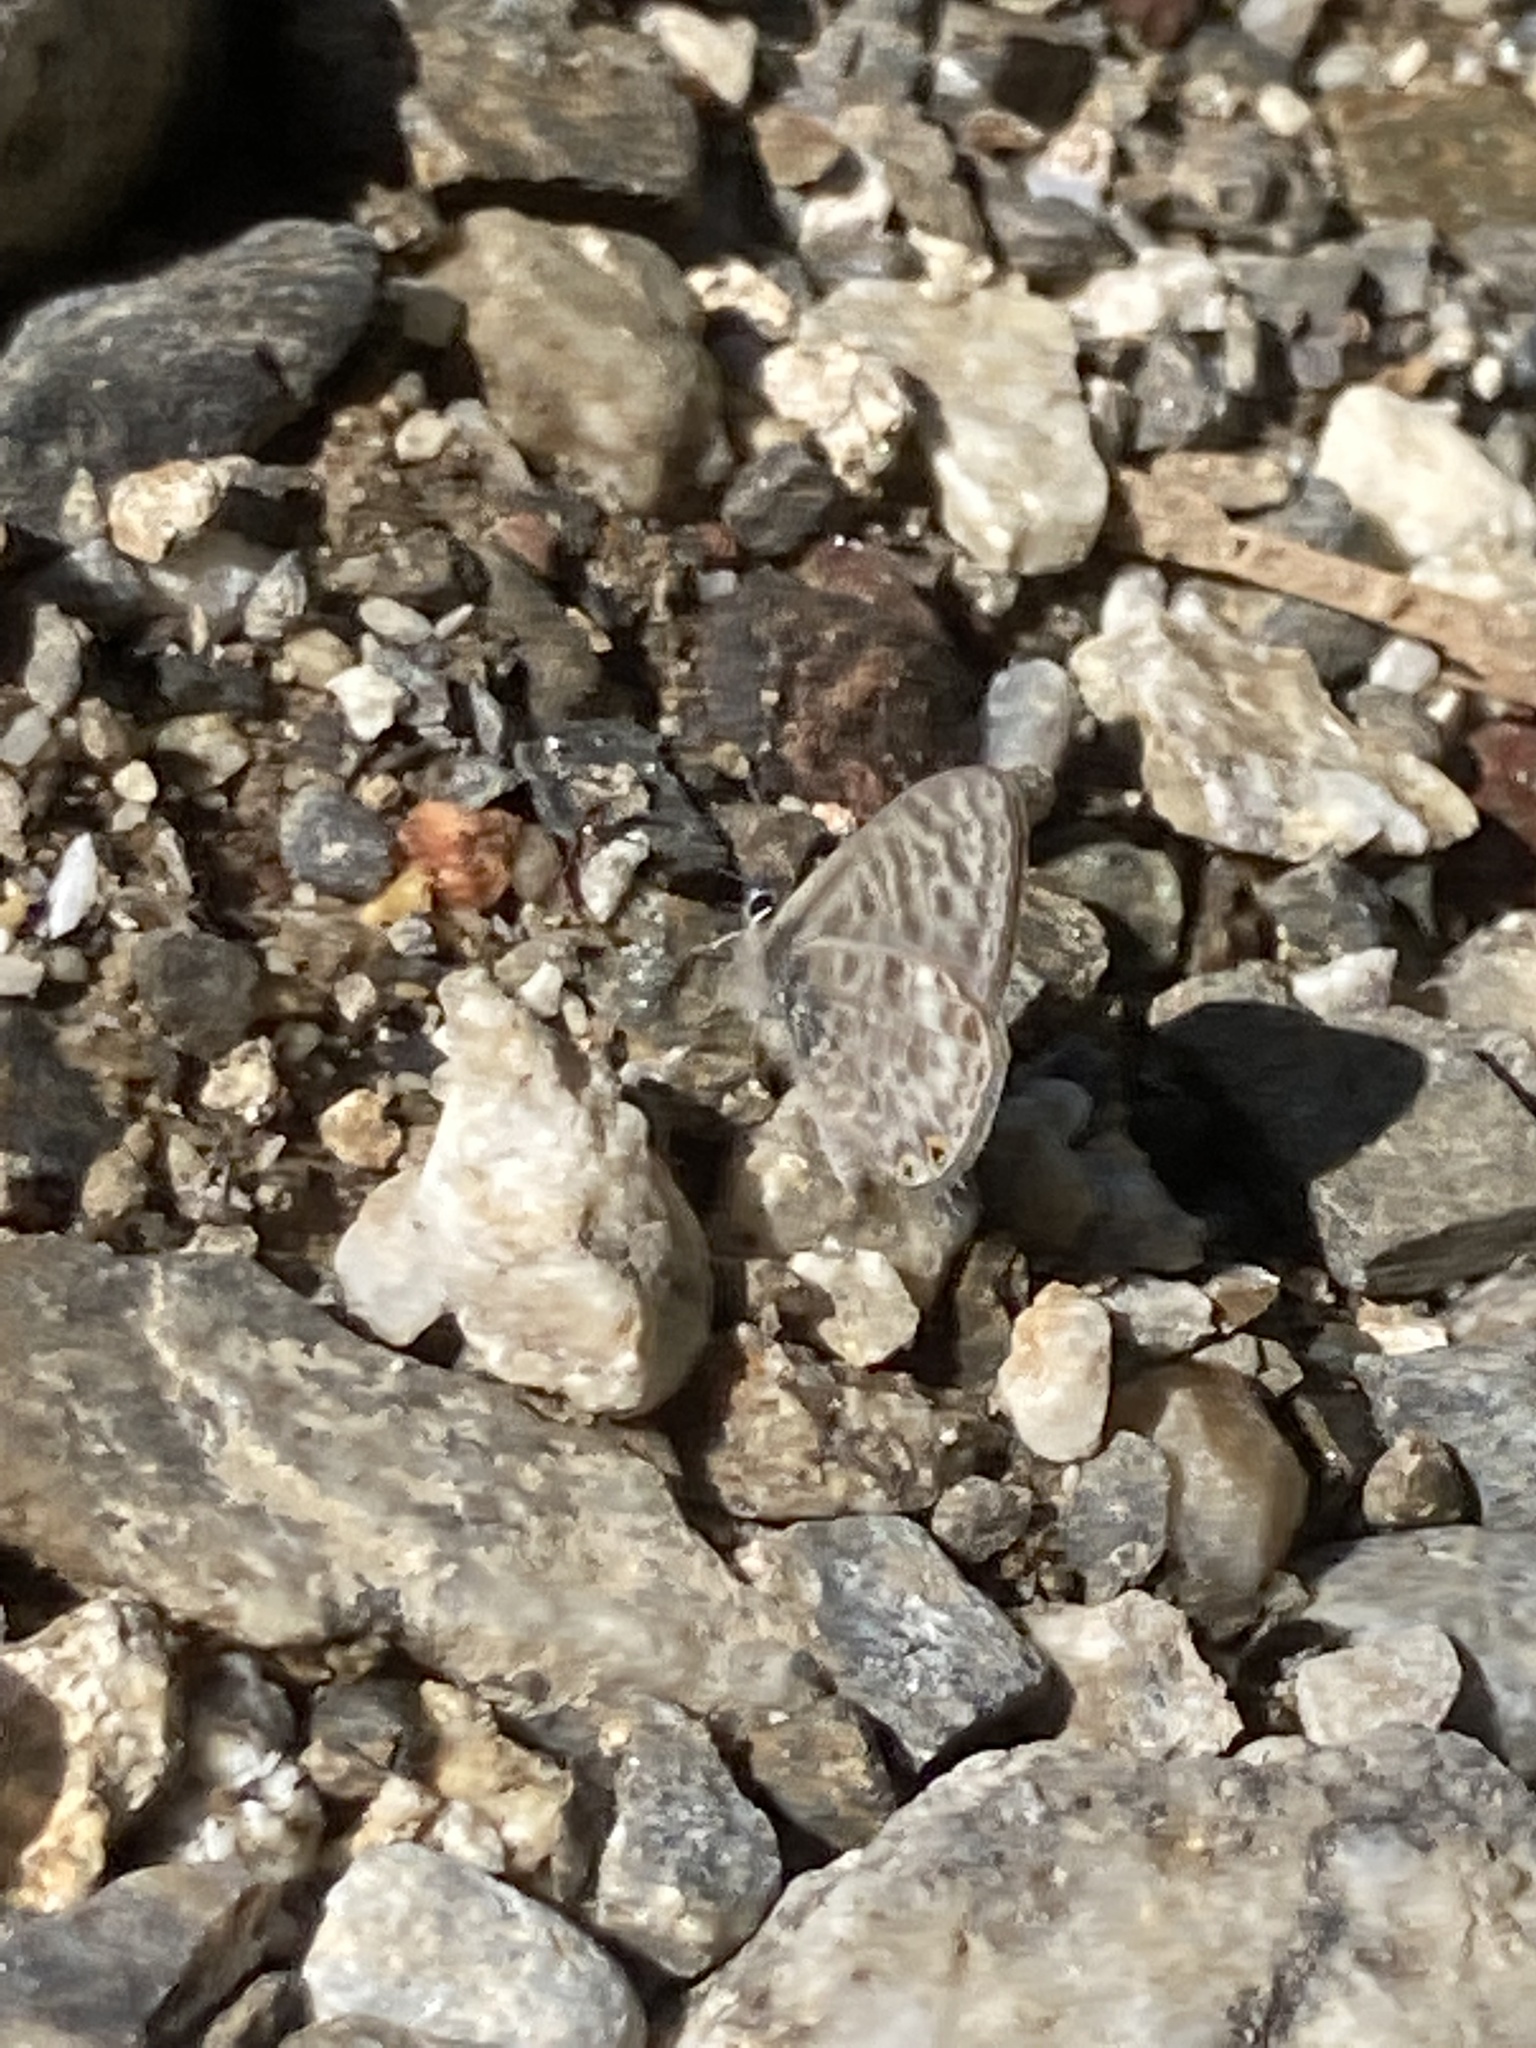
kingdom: Animalia
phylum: Arthropoda
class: Insecta
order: Lepidoptera
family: Lycaenidae
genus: Leptotes
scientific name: Leptotes pirithous
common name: Lang's short-tailed blue
